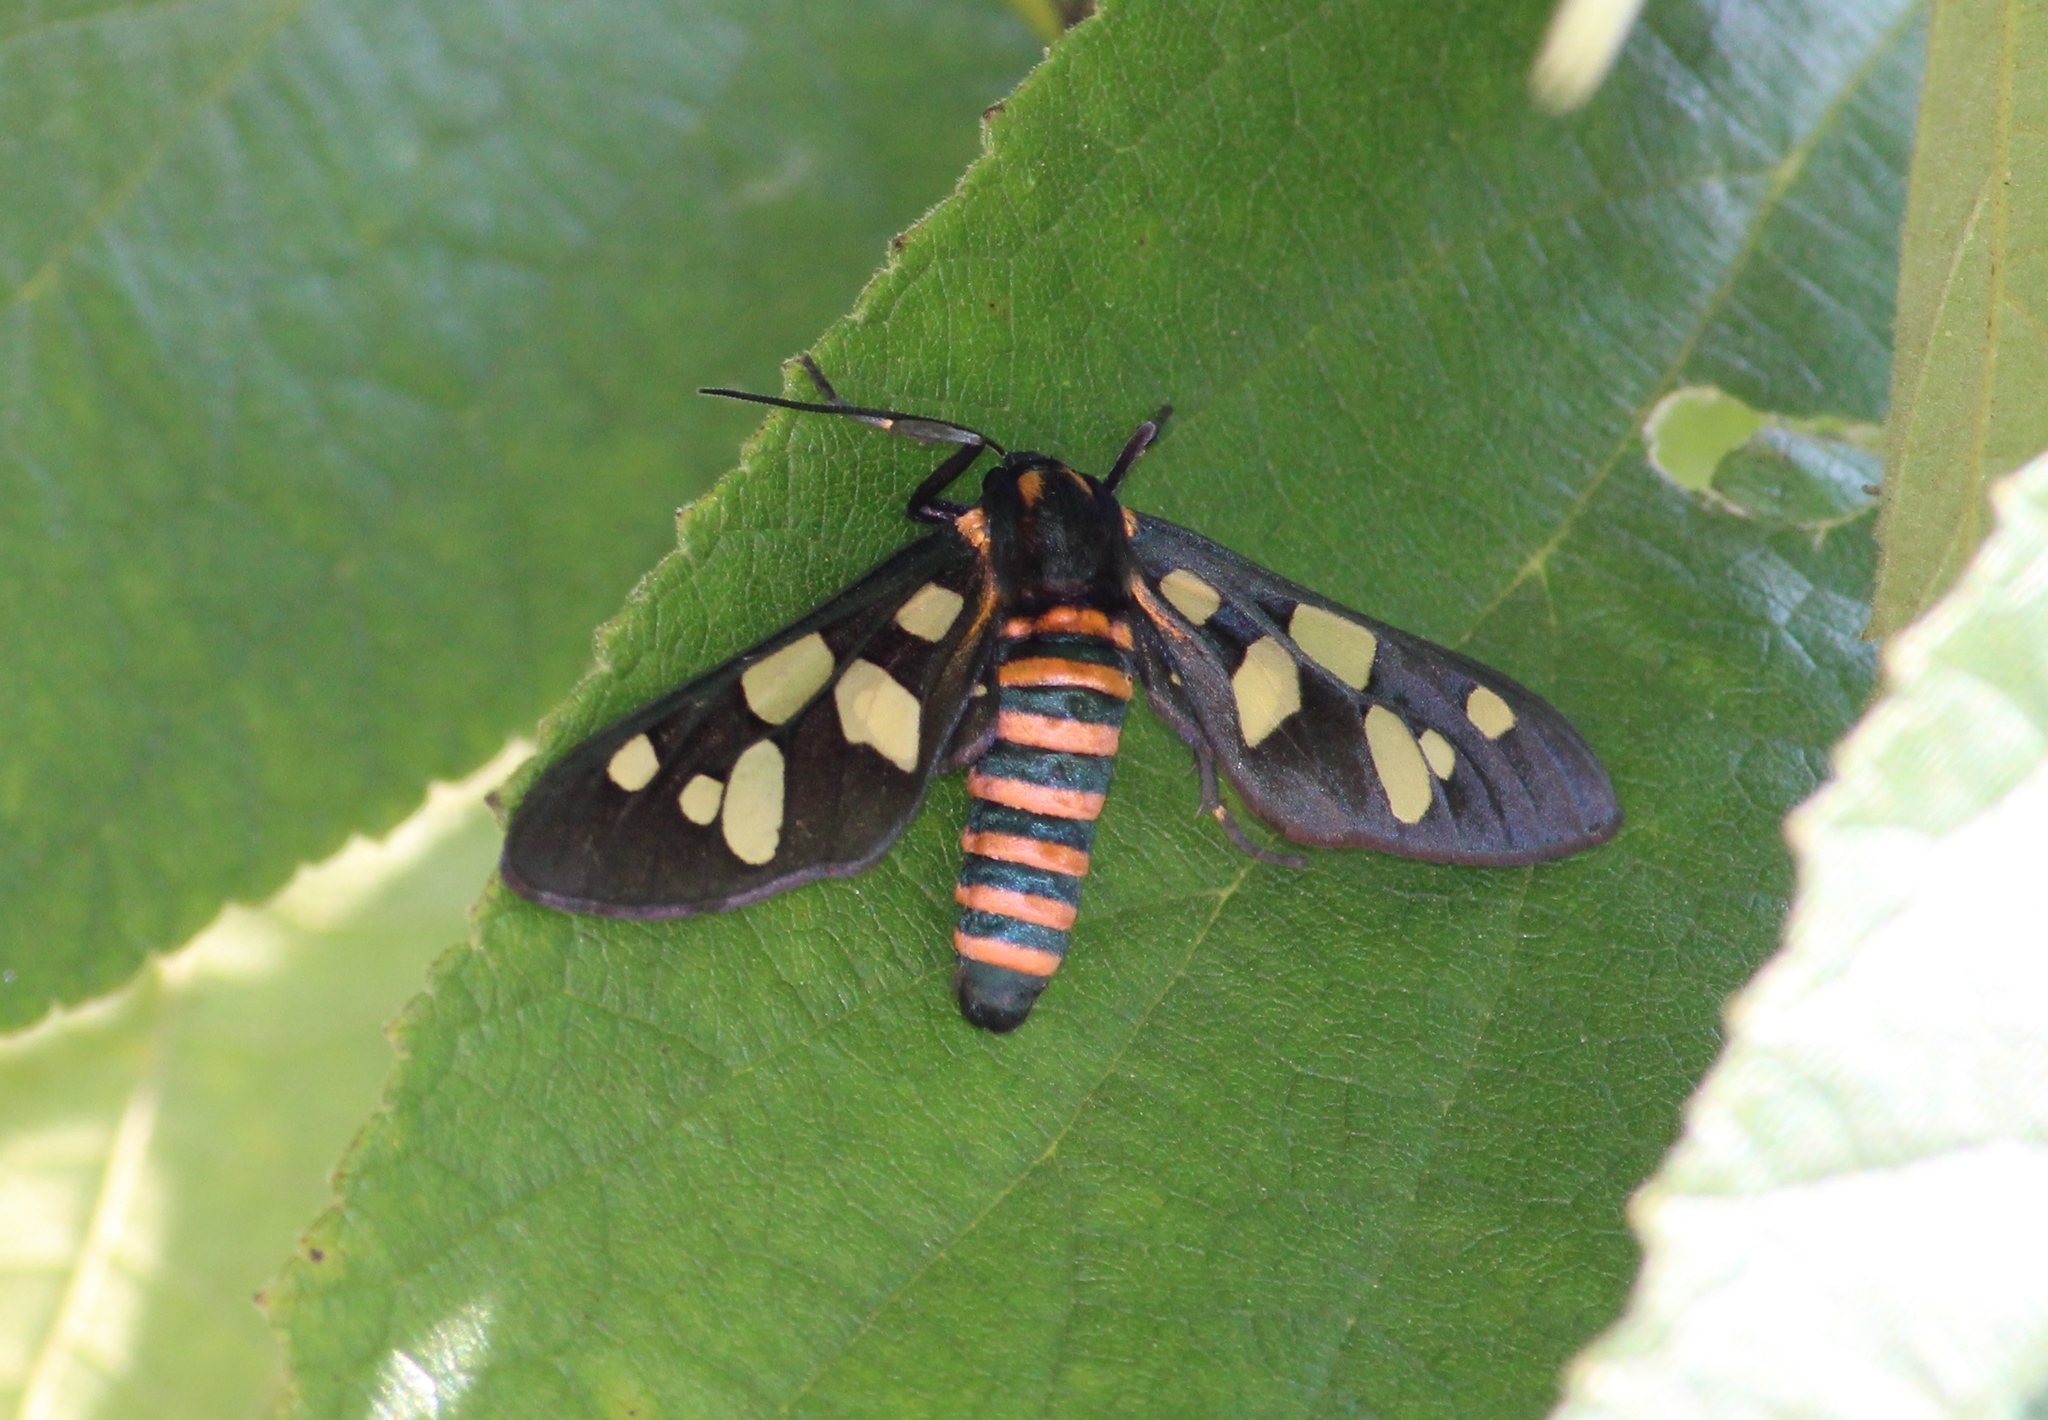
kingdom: Animalia
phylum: Arthropoda
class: Insecta
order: Lepidoptera
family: Erebidae
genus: Amata
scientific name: Amata passalis
